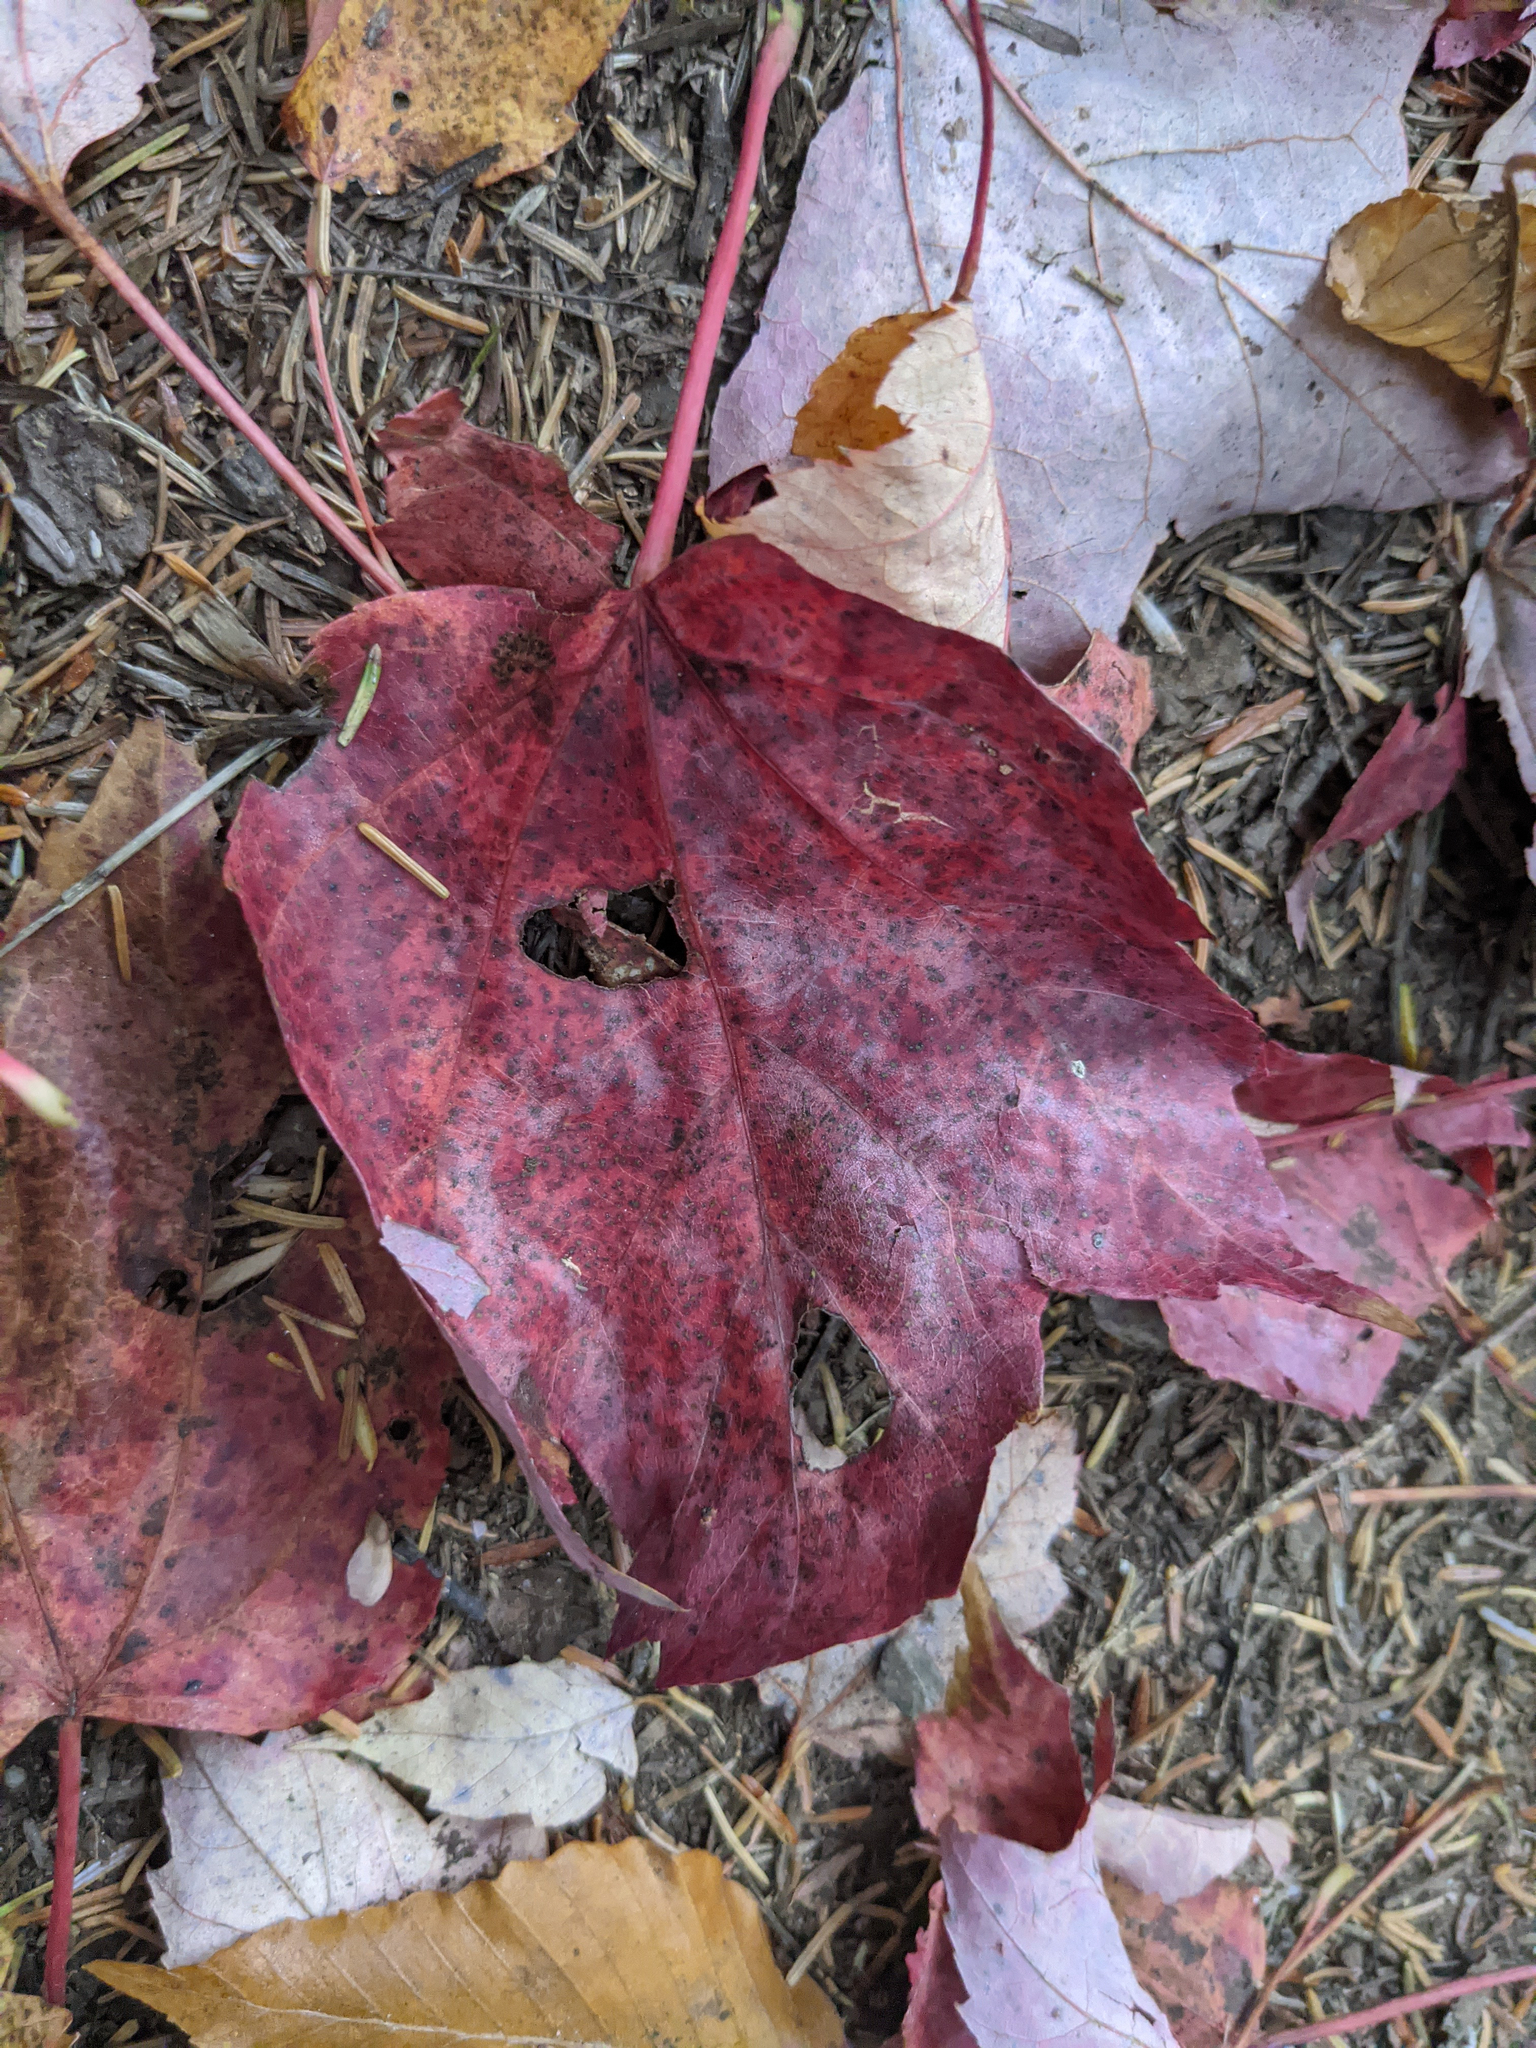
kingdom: Plantae
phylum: Tracheophyta
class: Magnoliopsida
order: Sapindales
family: Sapindaceae
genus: Acer
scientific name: Acer rubrum
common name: Red maple
